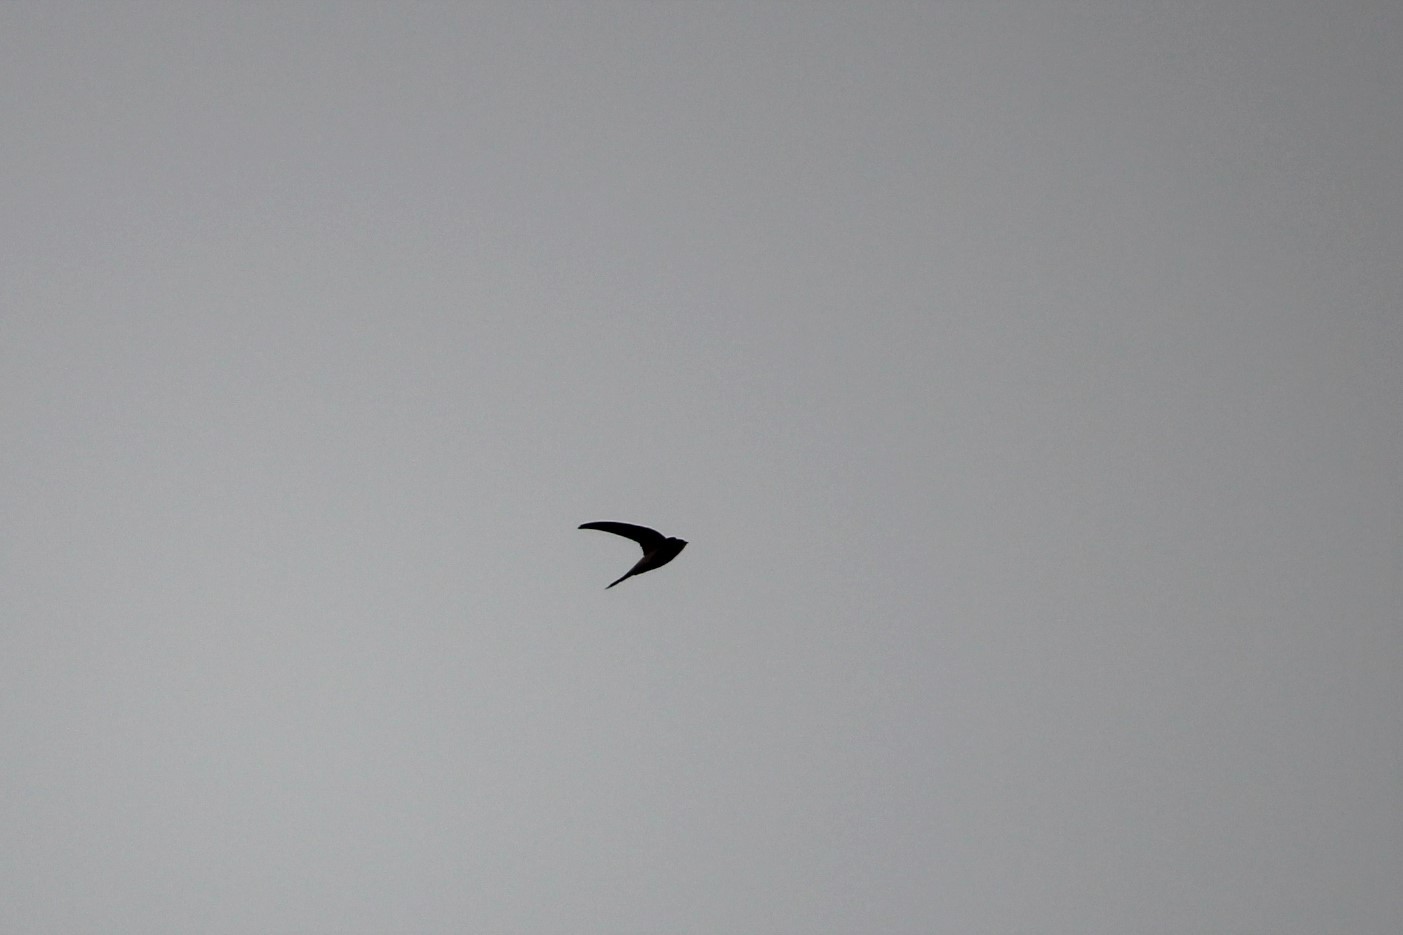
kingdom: Animalia
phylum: Chordata
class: Aves
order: Apodiformes
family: Apodidae
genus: Cypsiurus
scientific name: Cypsiurus balasiensis
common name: Asian palm swift
